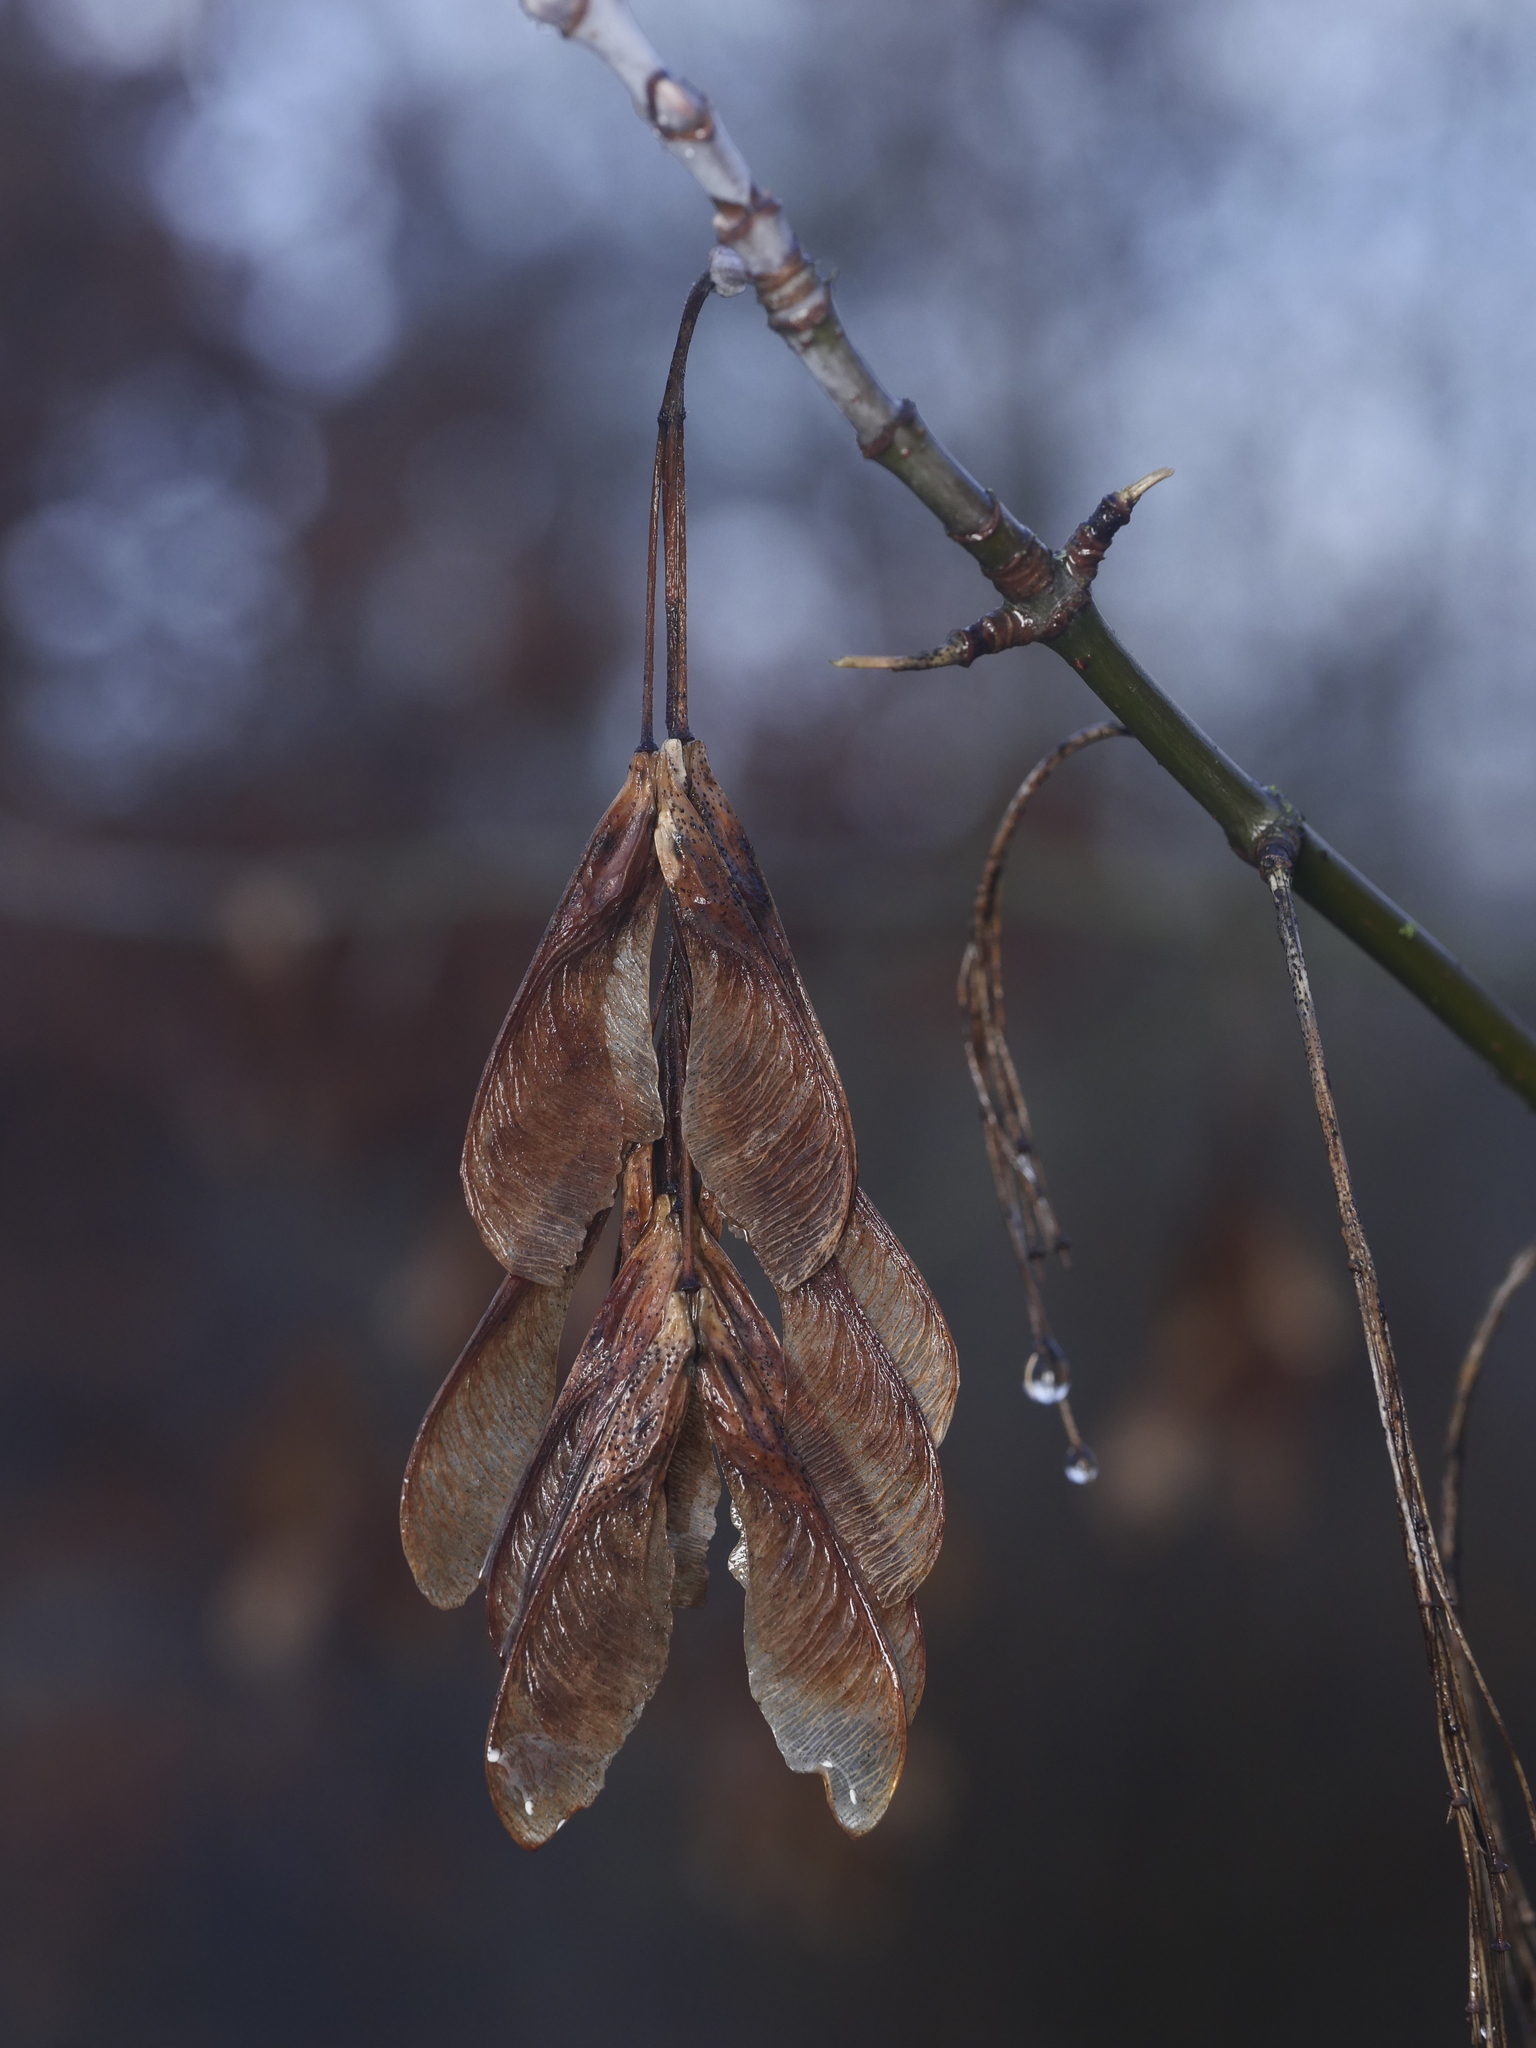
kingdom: Plantae
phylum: Tracheophyta
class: Magnoliopsida
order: Sapindales
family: Sapindaceae
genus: Acer
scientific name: Acer negundo
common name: Ashleaf maple
